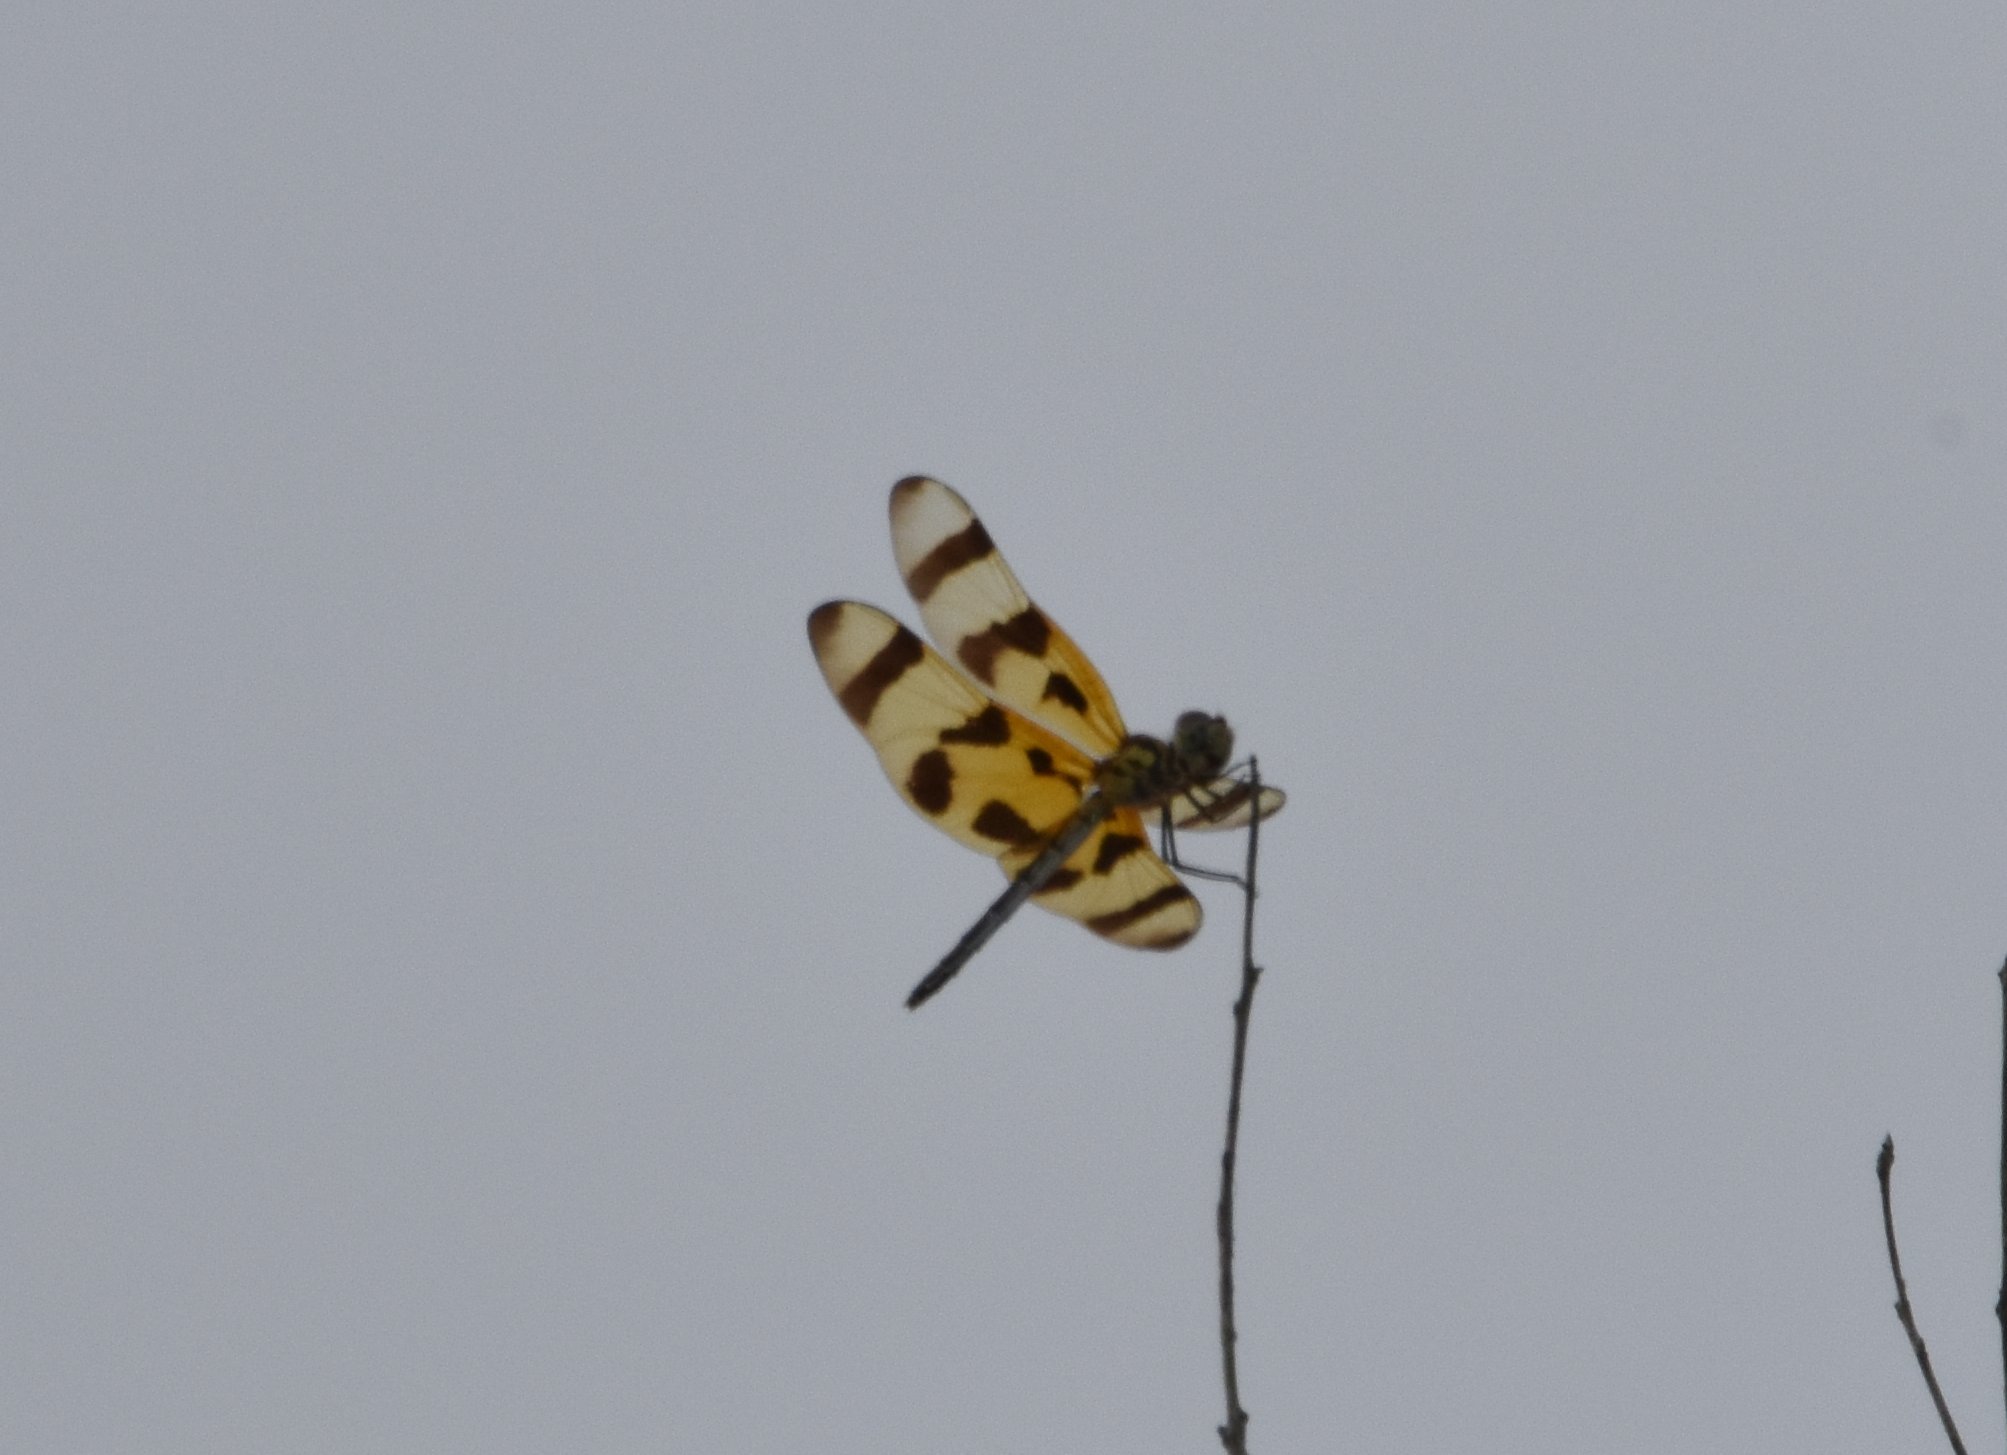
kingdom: Animalia
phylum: Arthropoda
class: Insecta
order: Odonata
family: Libellulidae
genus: Celithemis
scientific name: Celithemis eponina
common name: Halloween pennant
